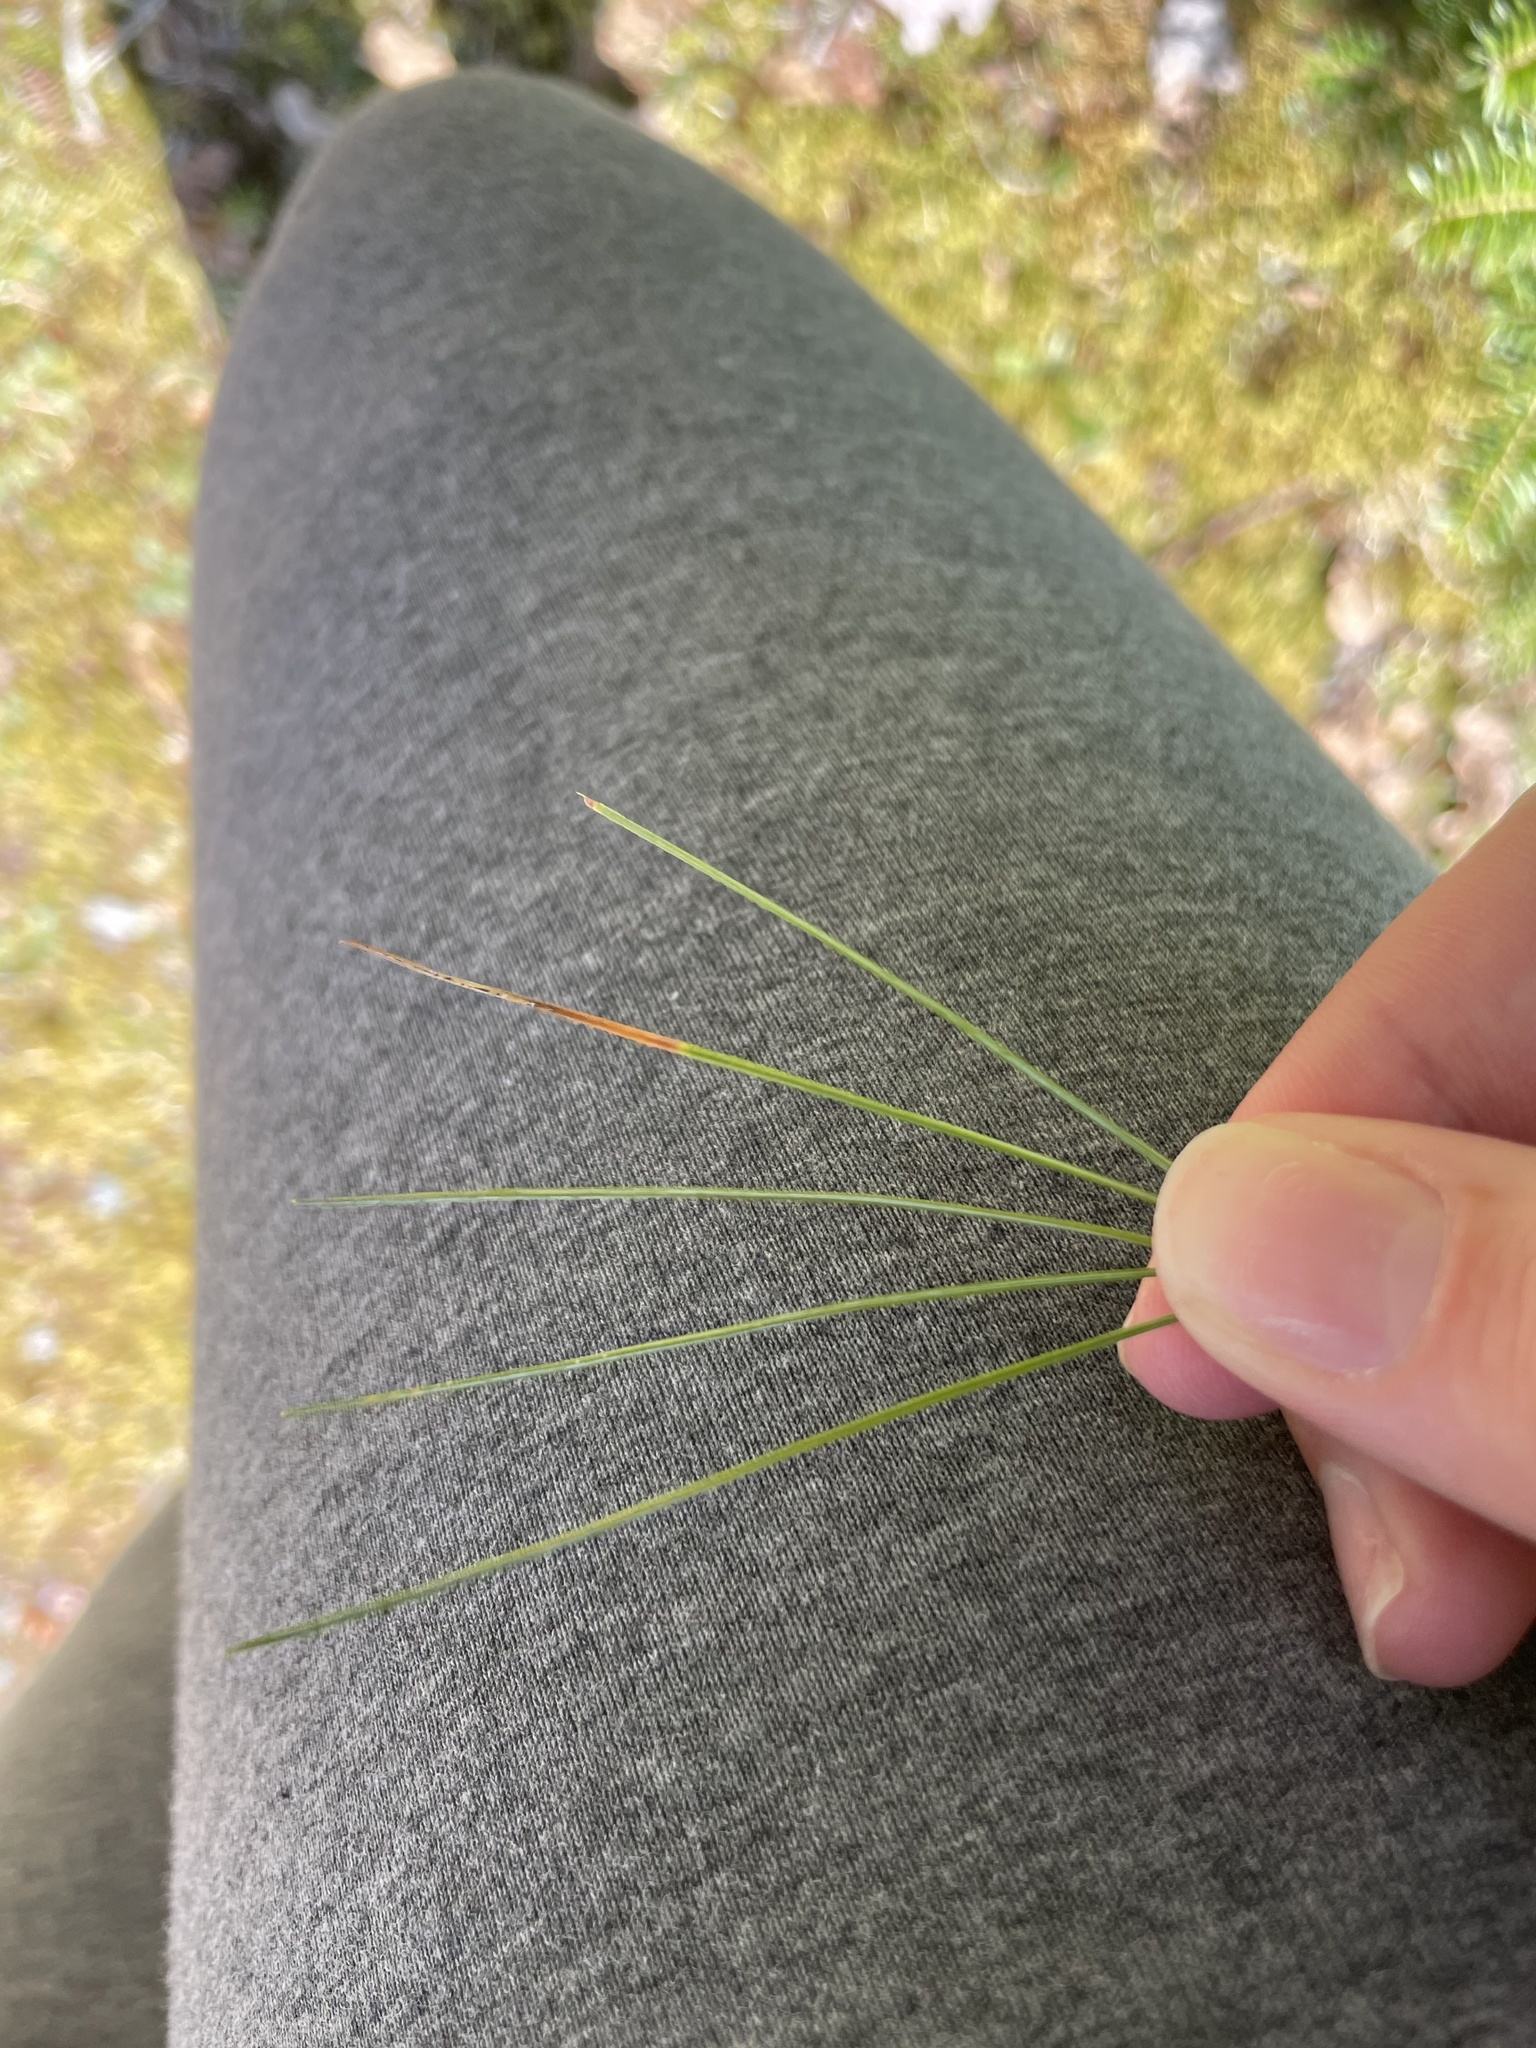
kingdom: Plantae
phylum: Tracheophyta
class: Pinopsida
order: Pinales
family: Pinaceae
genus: Pinus
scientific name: Pinus strobus
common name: Weymouth pine
